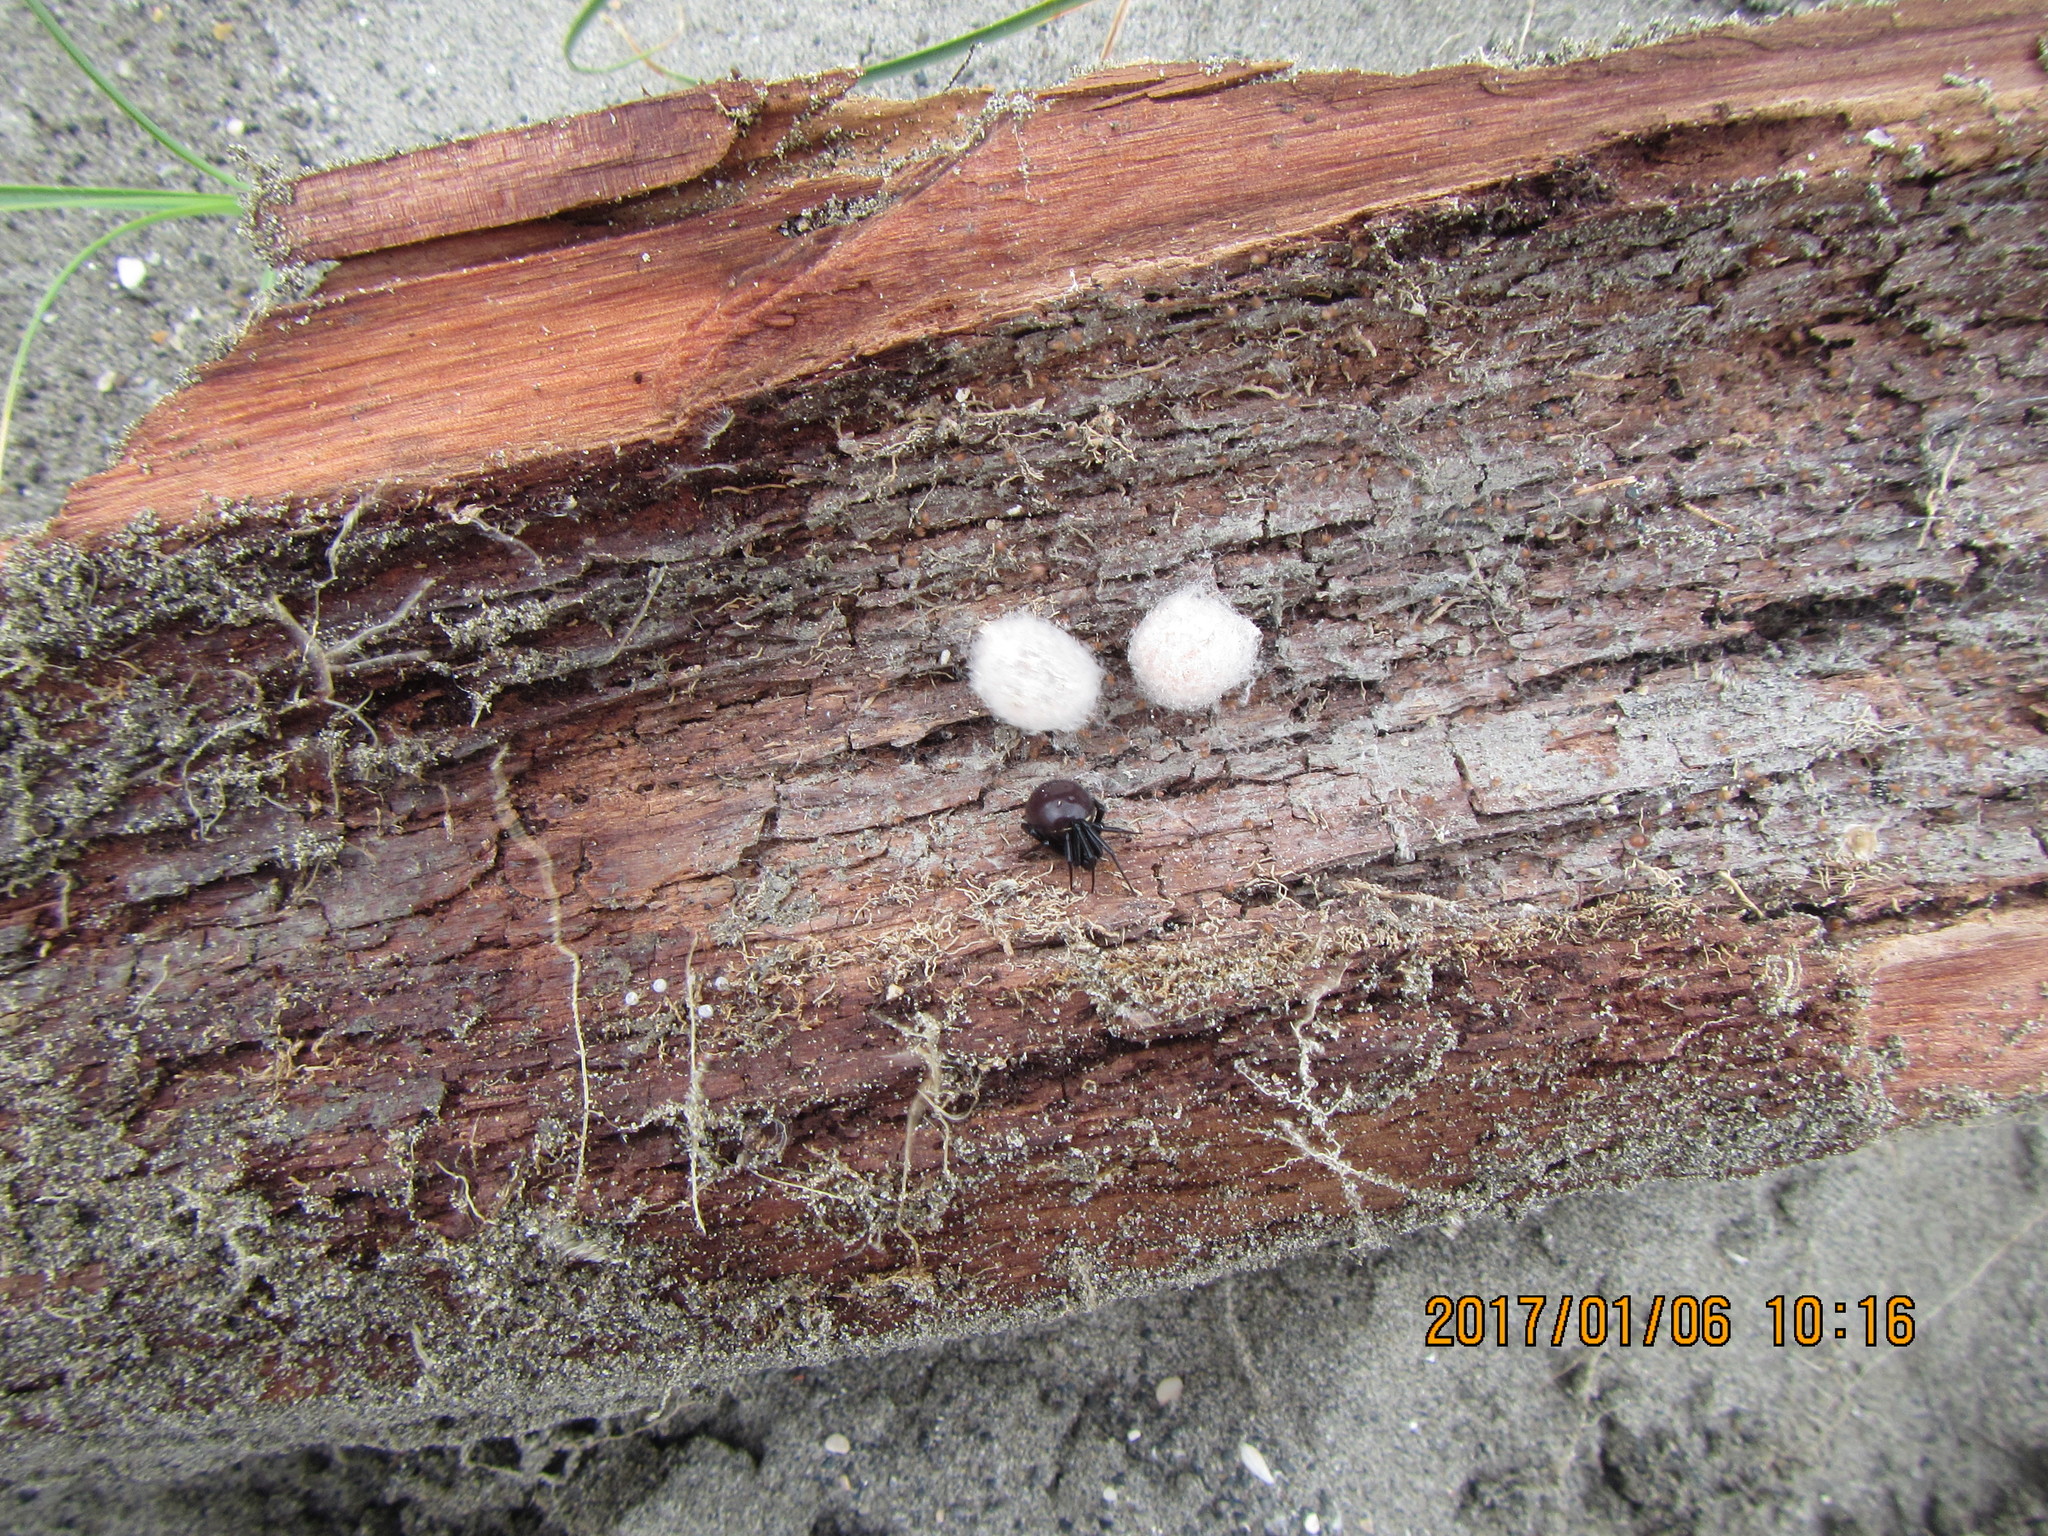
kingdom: Animalia
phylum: Arthropoda
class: Arachnida
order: Araneae
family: Theridiidae
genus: Steatoda
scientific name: Steatoda capensis
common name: Cobweb weaver
